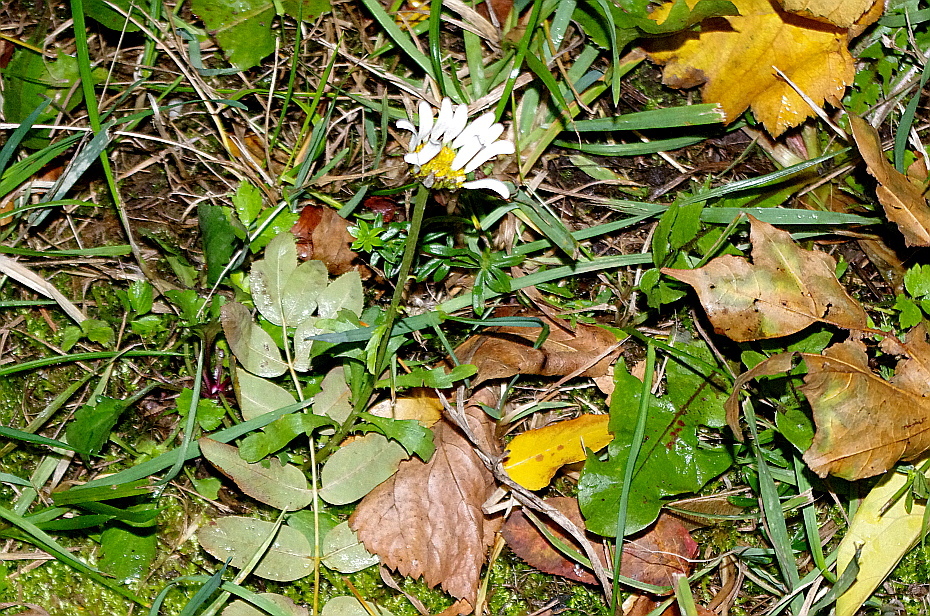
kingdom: Plantae
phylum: Tracheophyta
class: Magnoliopsida
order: Asterales
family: Asteraceae
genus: Leucanthemum
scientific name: Leucanthemum vulgare
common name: Oxeye daisy
